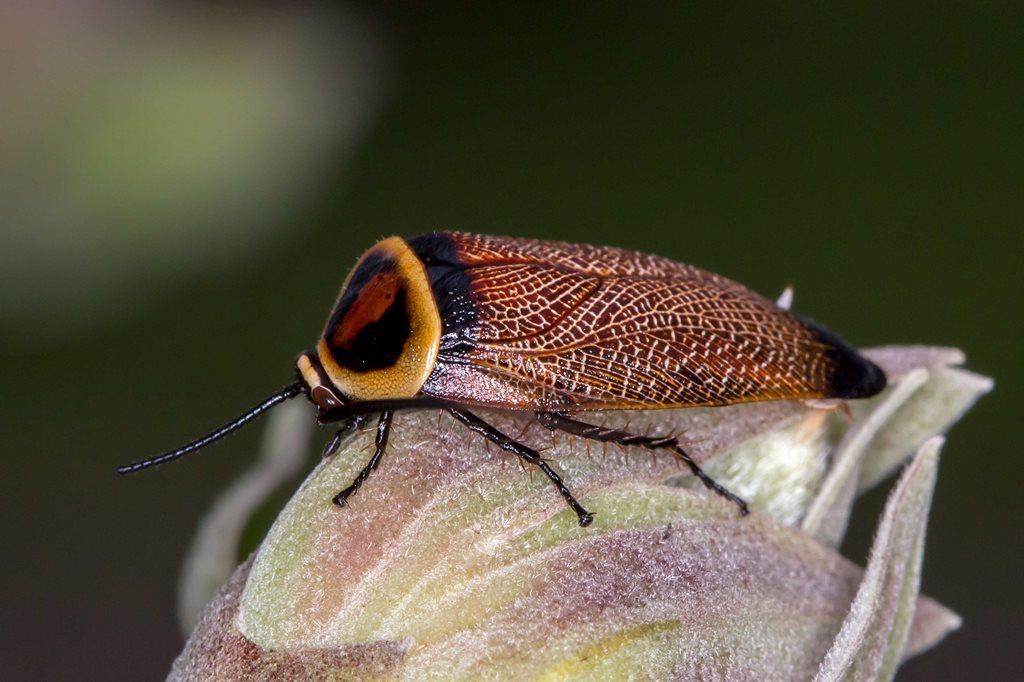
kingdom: Animalia
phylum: Arthropoda
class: Insecta
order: Blattodea
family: Ectobiidae
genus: Ellipsidion
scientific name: Ellipsidion australe
